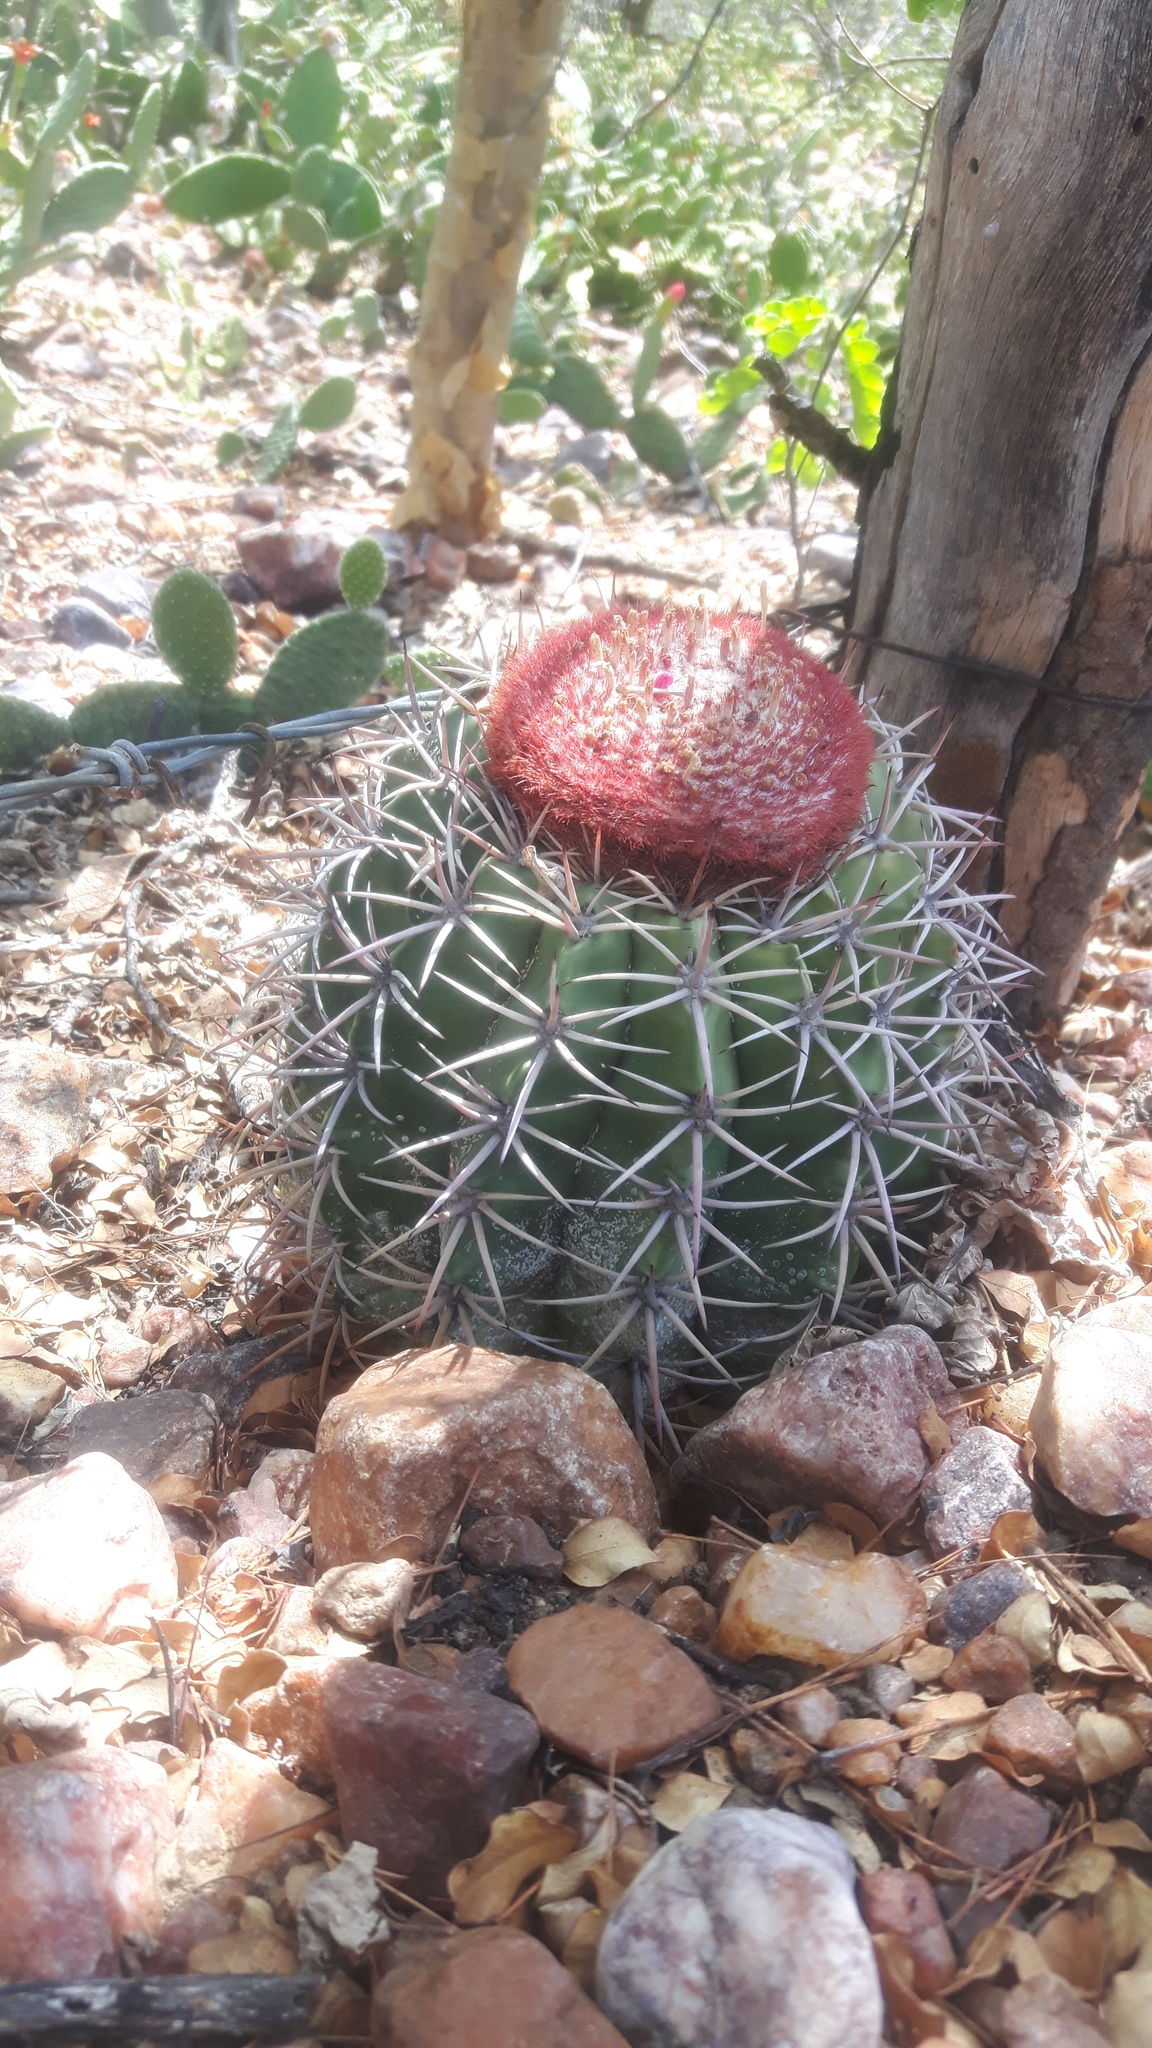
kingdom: Plantae
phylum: Tracheophyta
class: Magnoliopsida
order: Caryophyllales
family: Cactaceae
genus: Melocactus
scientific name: Melocactus zehntneri
